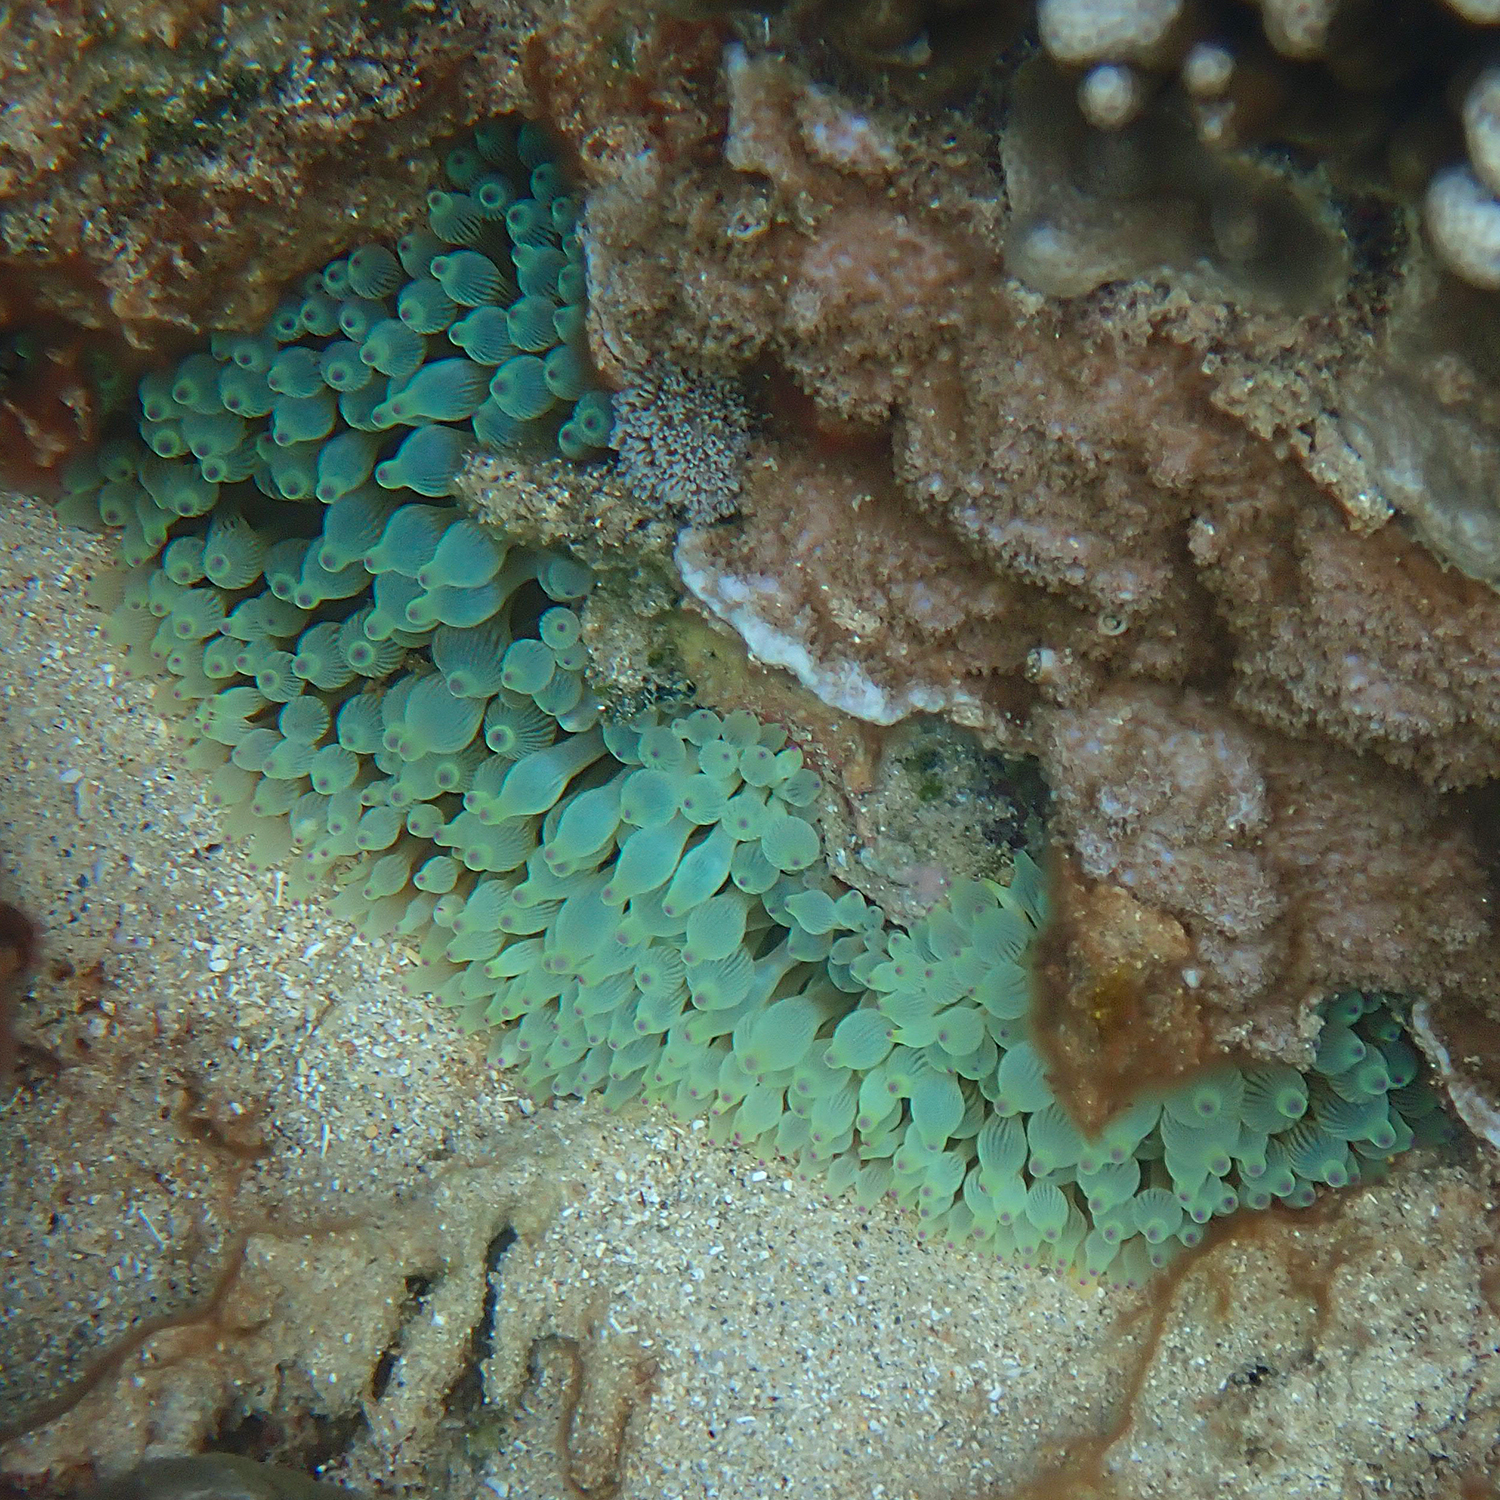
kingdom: Animalia
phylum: Cnidaria
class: Anthozoa
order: Actiniaria
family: Actiniidae
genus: Entacmaea
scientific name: Entacmaea quadricolor
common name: Bulb tentacle sea anemone
